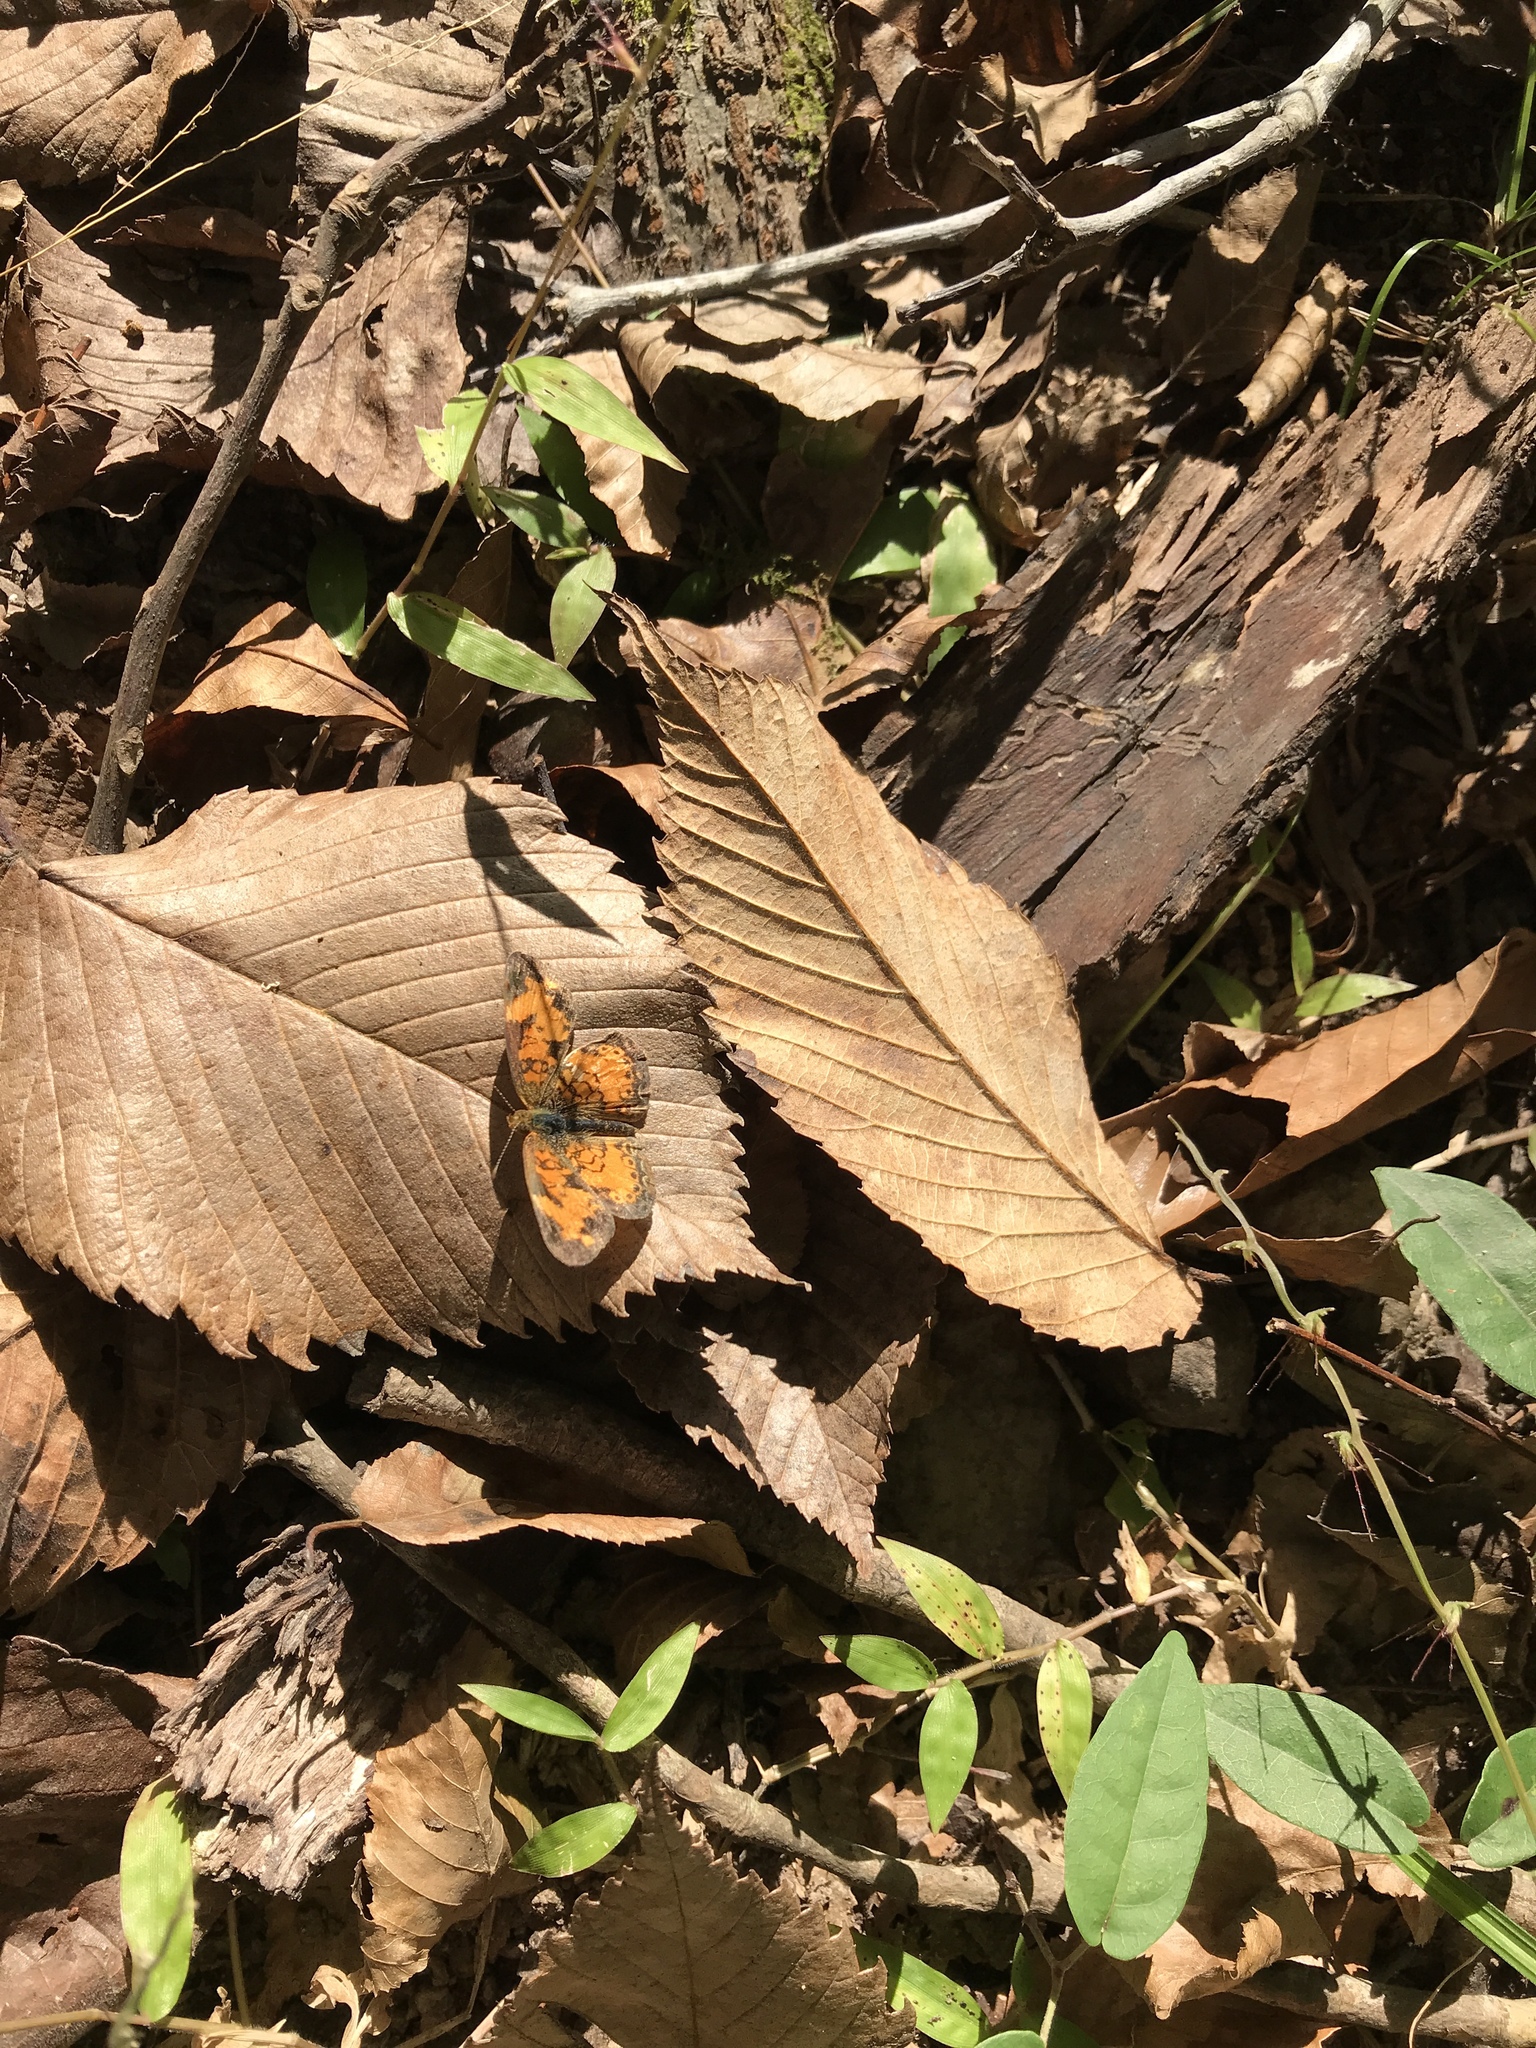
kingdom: Animalia
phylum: Arthropoda
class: Insecta
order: Lepidoptera
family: Nymphalidae
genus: Phyciodes
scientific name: Phyciodes tharos
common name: Pearl crescent
